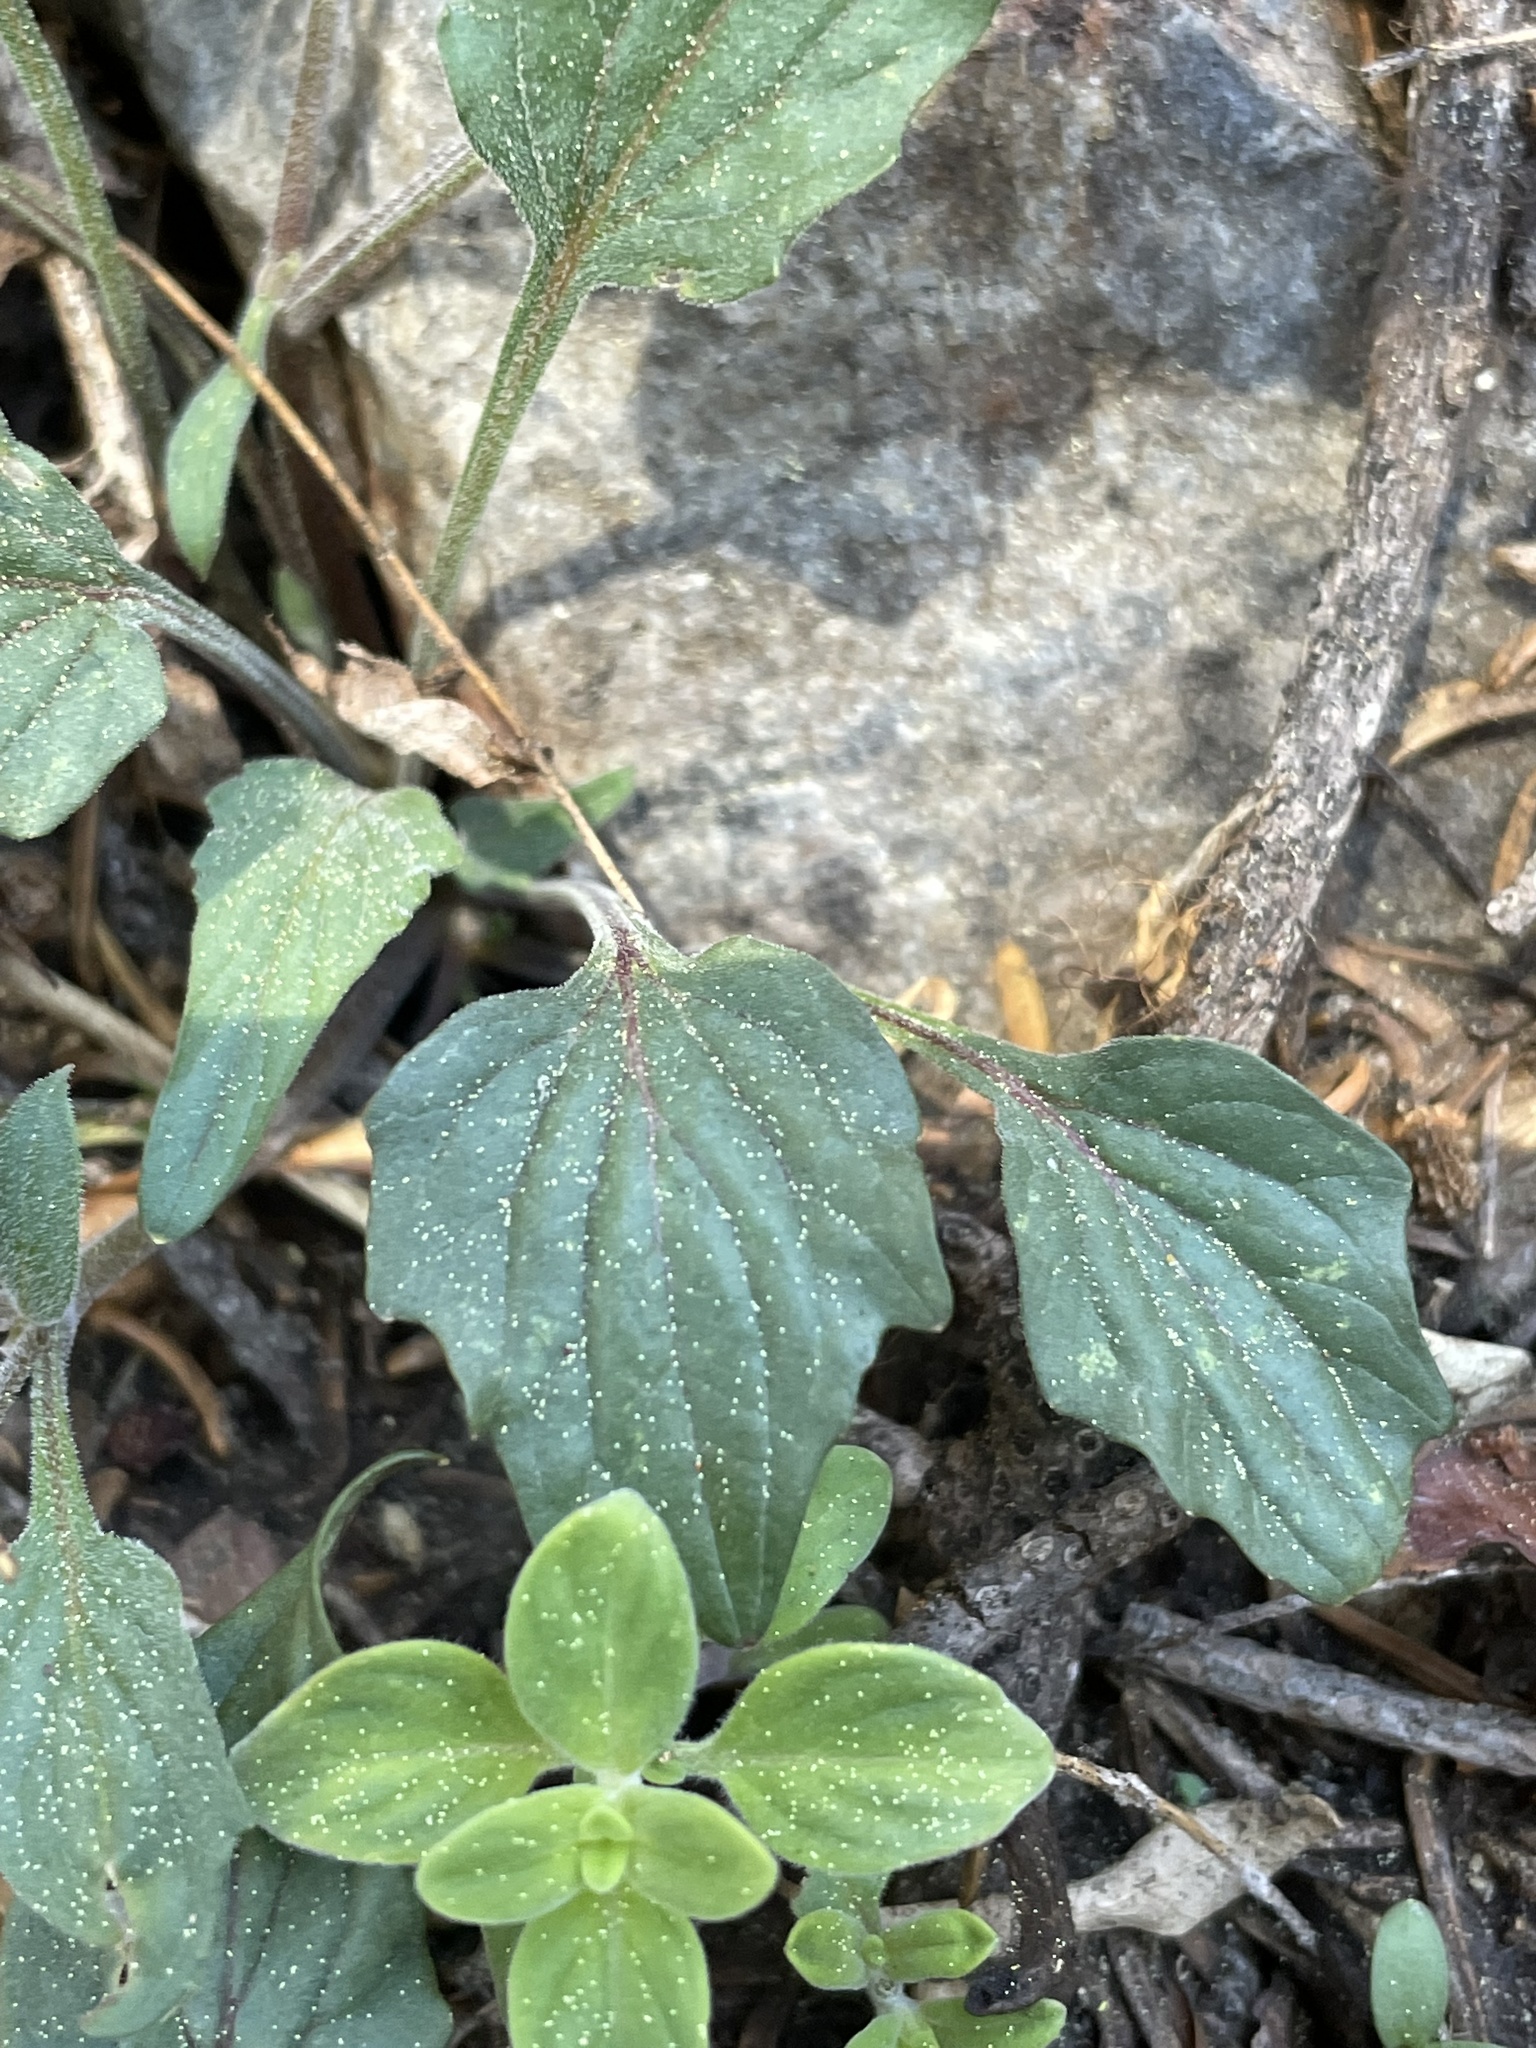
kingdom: Plantae
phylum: Tracheophyta
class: Magnoliopsida
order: Malpighiales
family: Violaceae
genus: Viola
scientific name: Viola pinetorum
